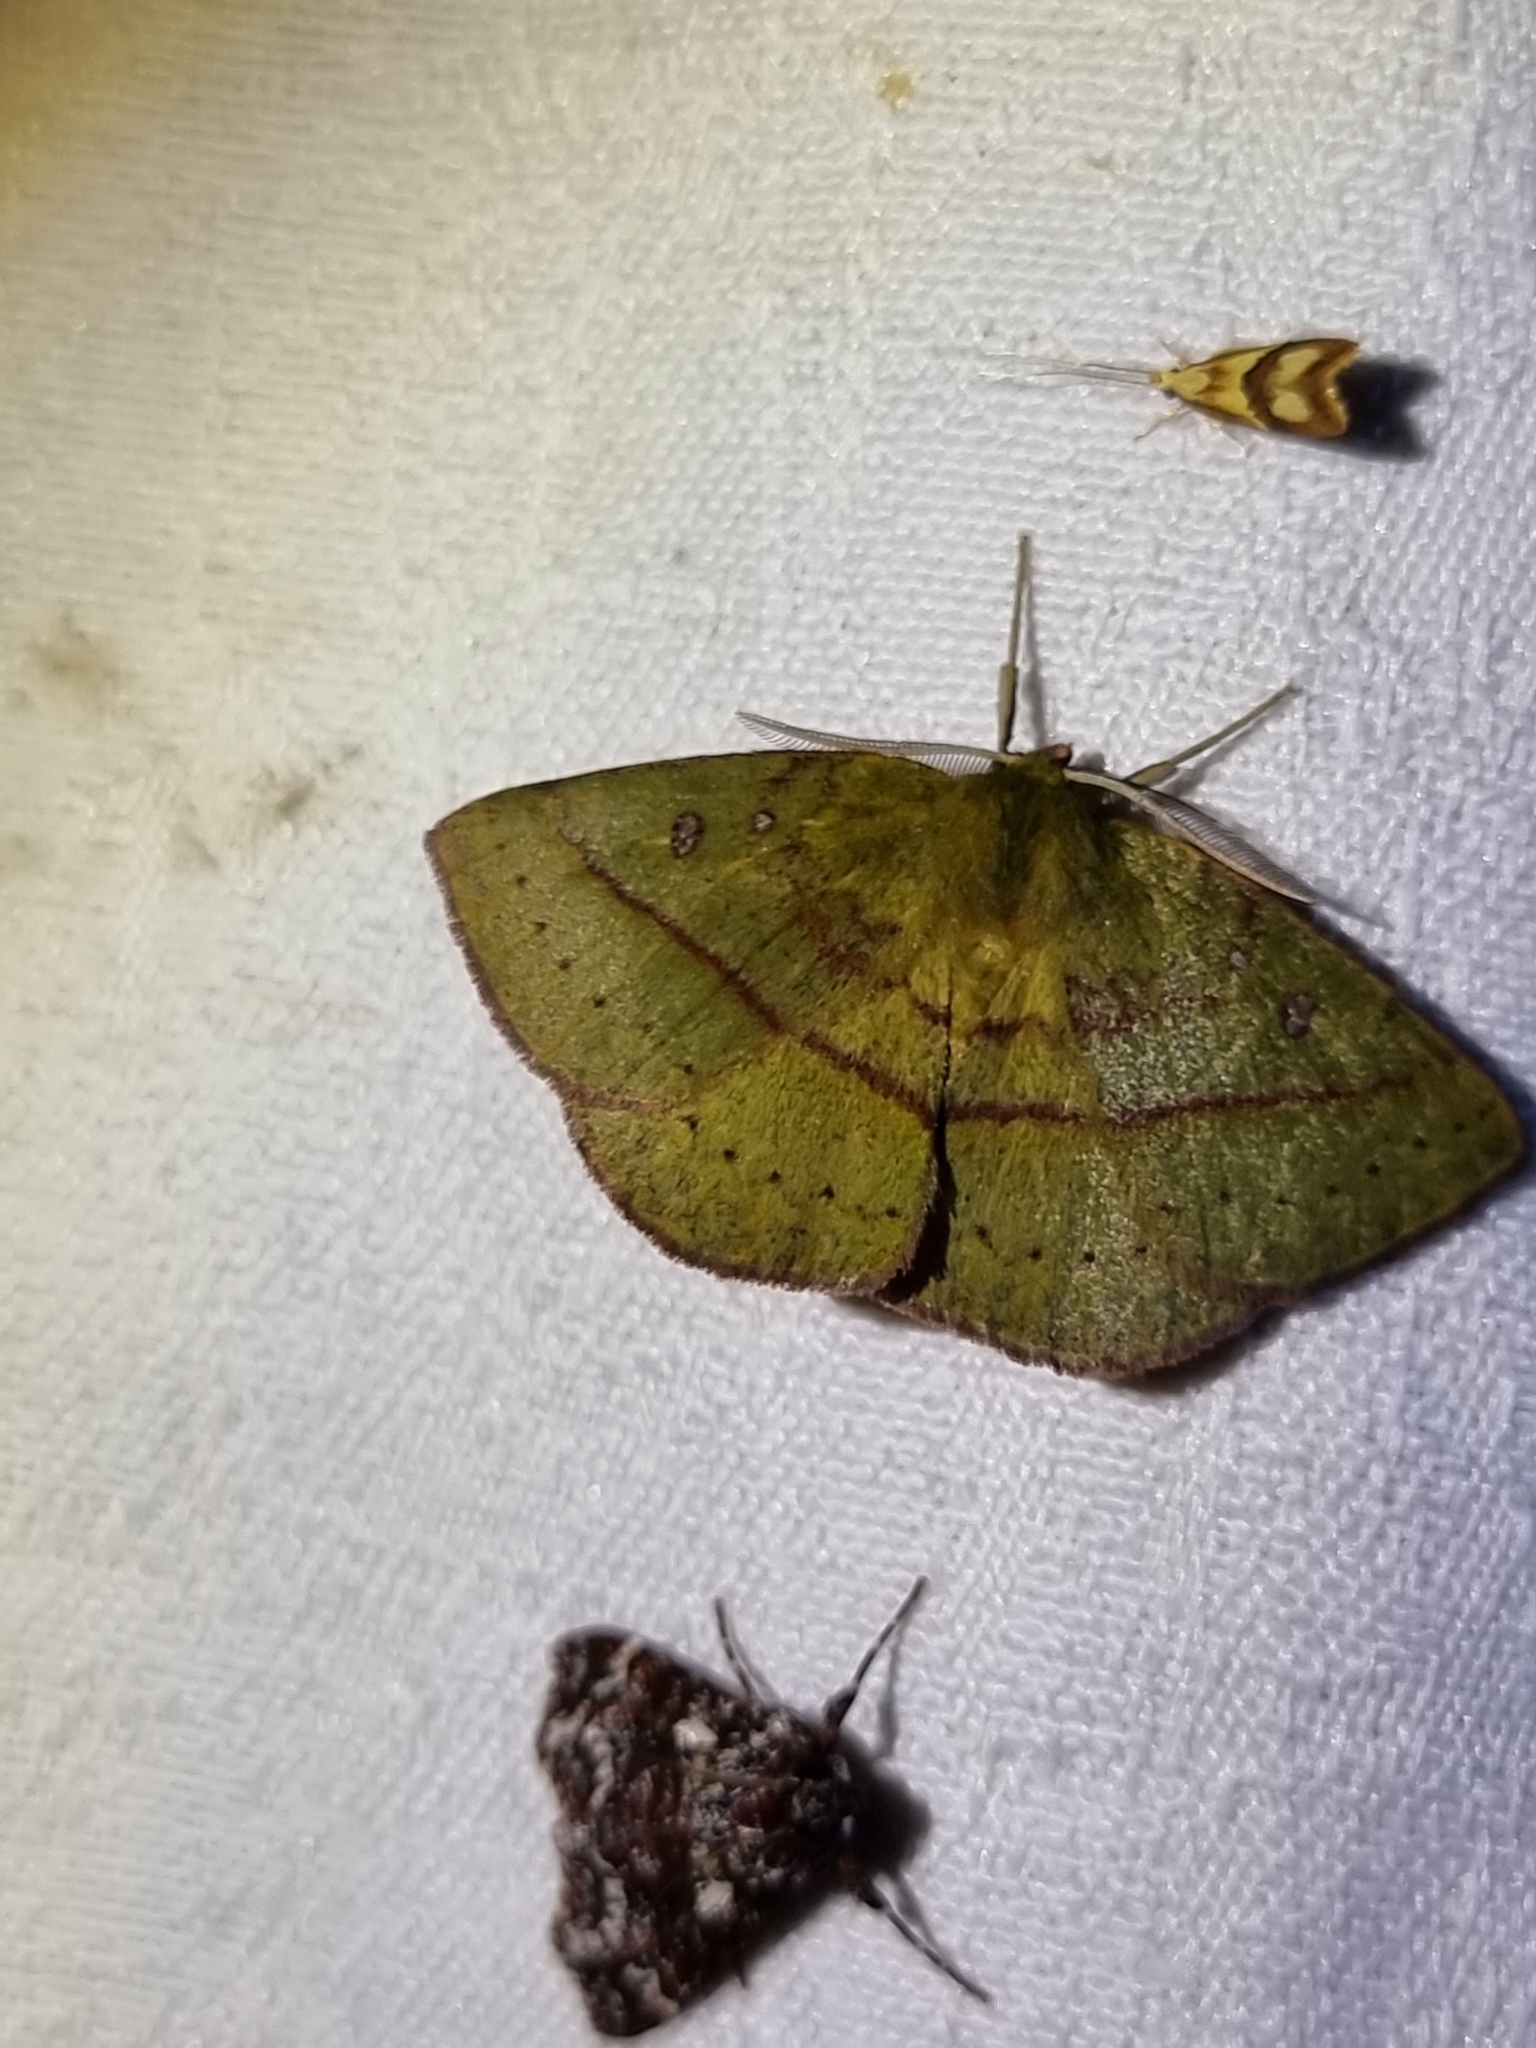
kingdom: Animalia
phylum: Arthropoda
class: Insecta
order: Lepidoptera
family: Anthelidae
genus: Anthela
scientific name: Anthela virescens
